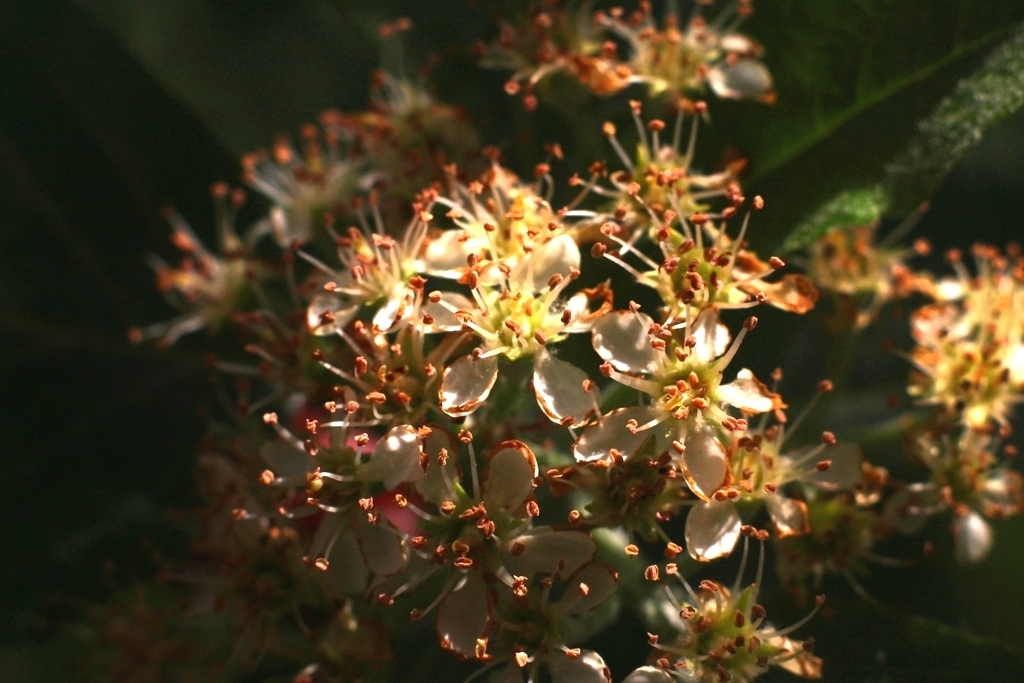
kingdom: Plantae
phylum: Tracheophyta
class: Magnoliopsida
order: Rosales
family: Rosaceae
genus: Aria
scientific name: Aria edulis
